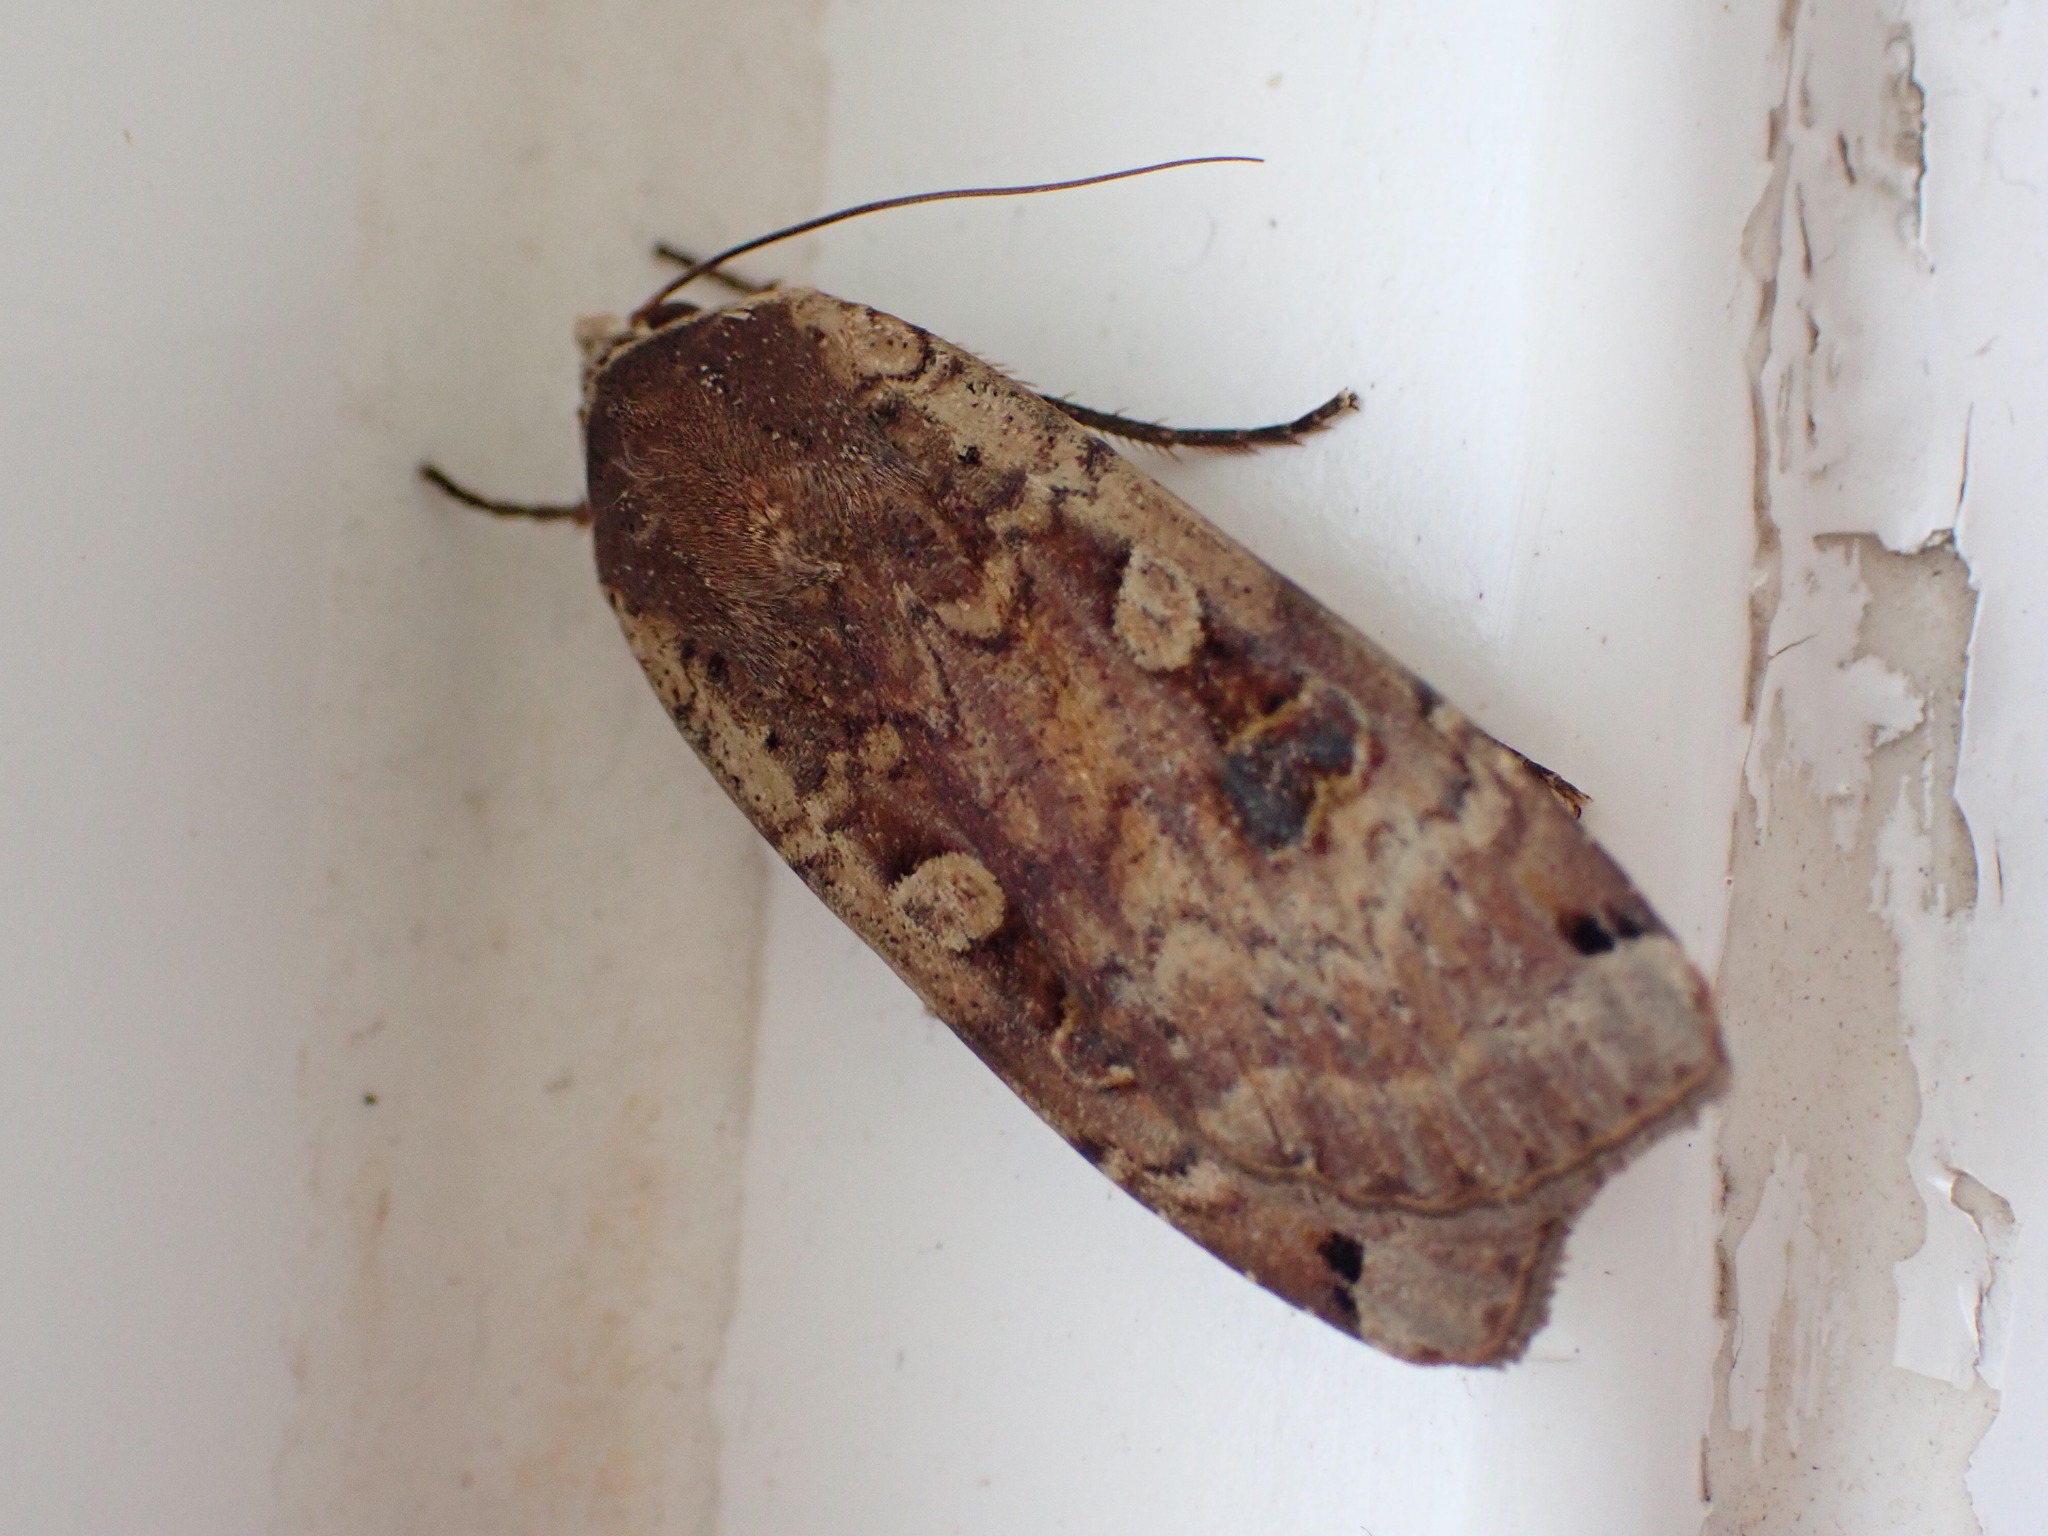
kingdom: Animalia
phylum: Arthropoda
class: Insecta
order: Lepidoptera
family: Noctuidae
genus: Noctua
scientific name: Noctua pronuba
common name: Large yellow underwing
